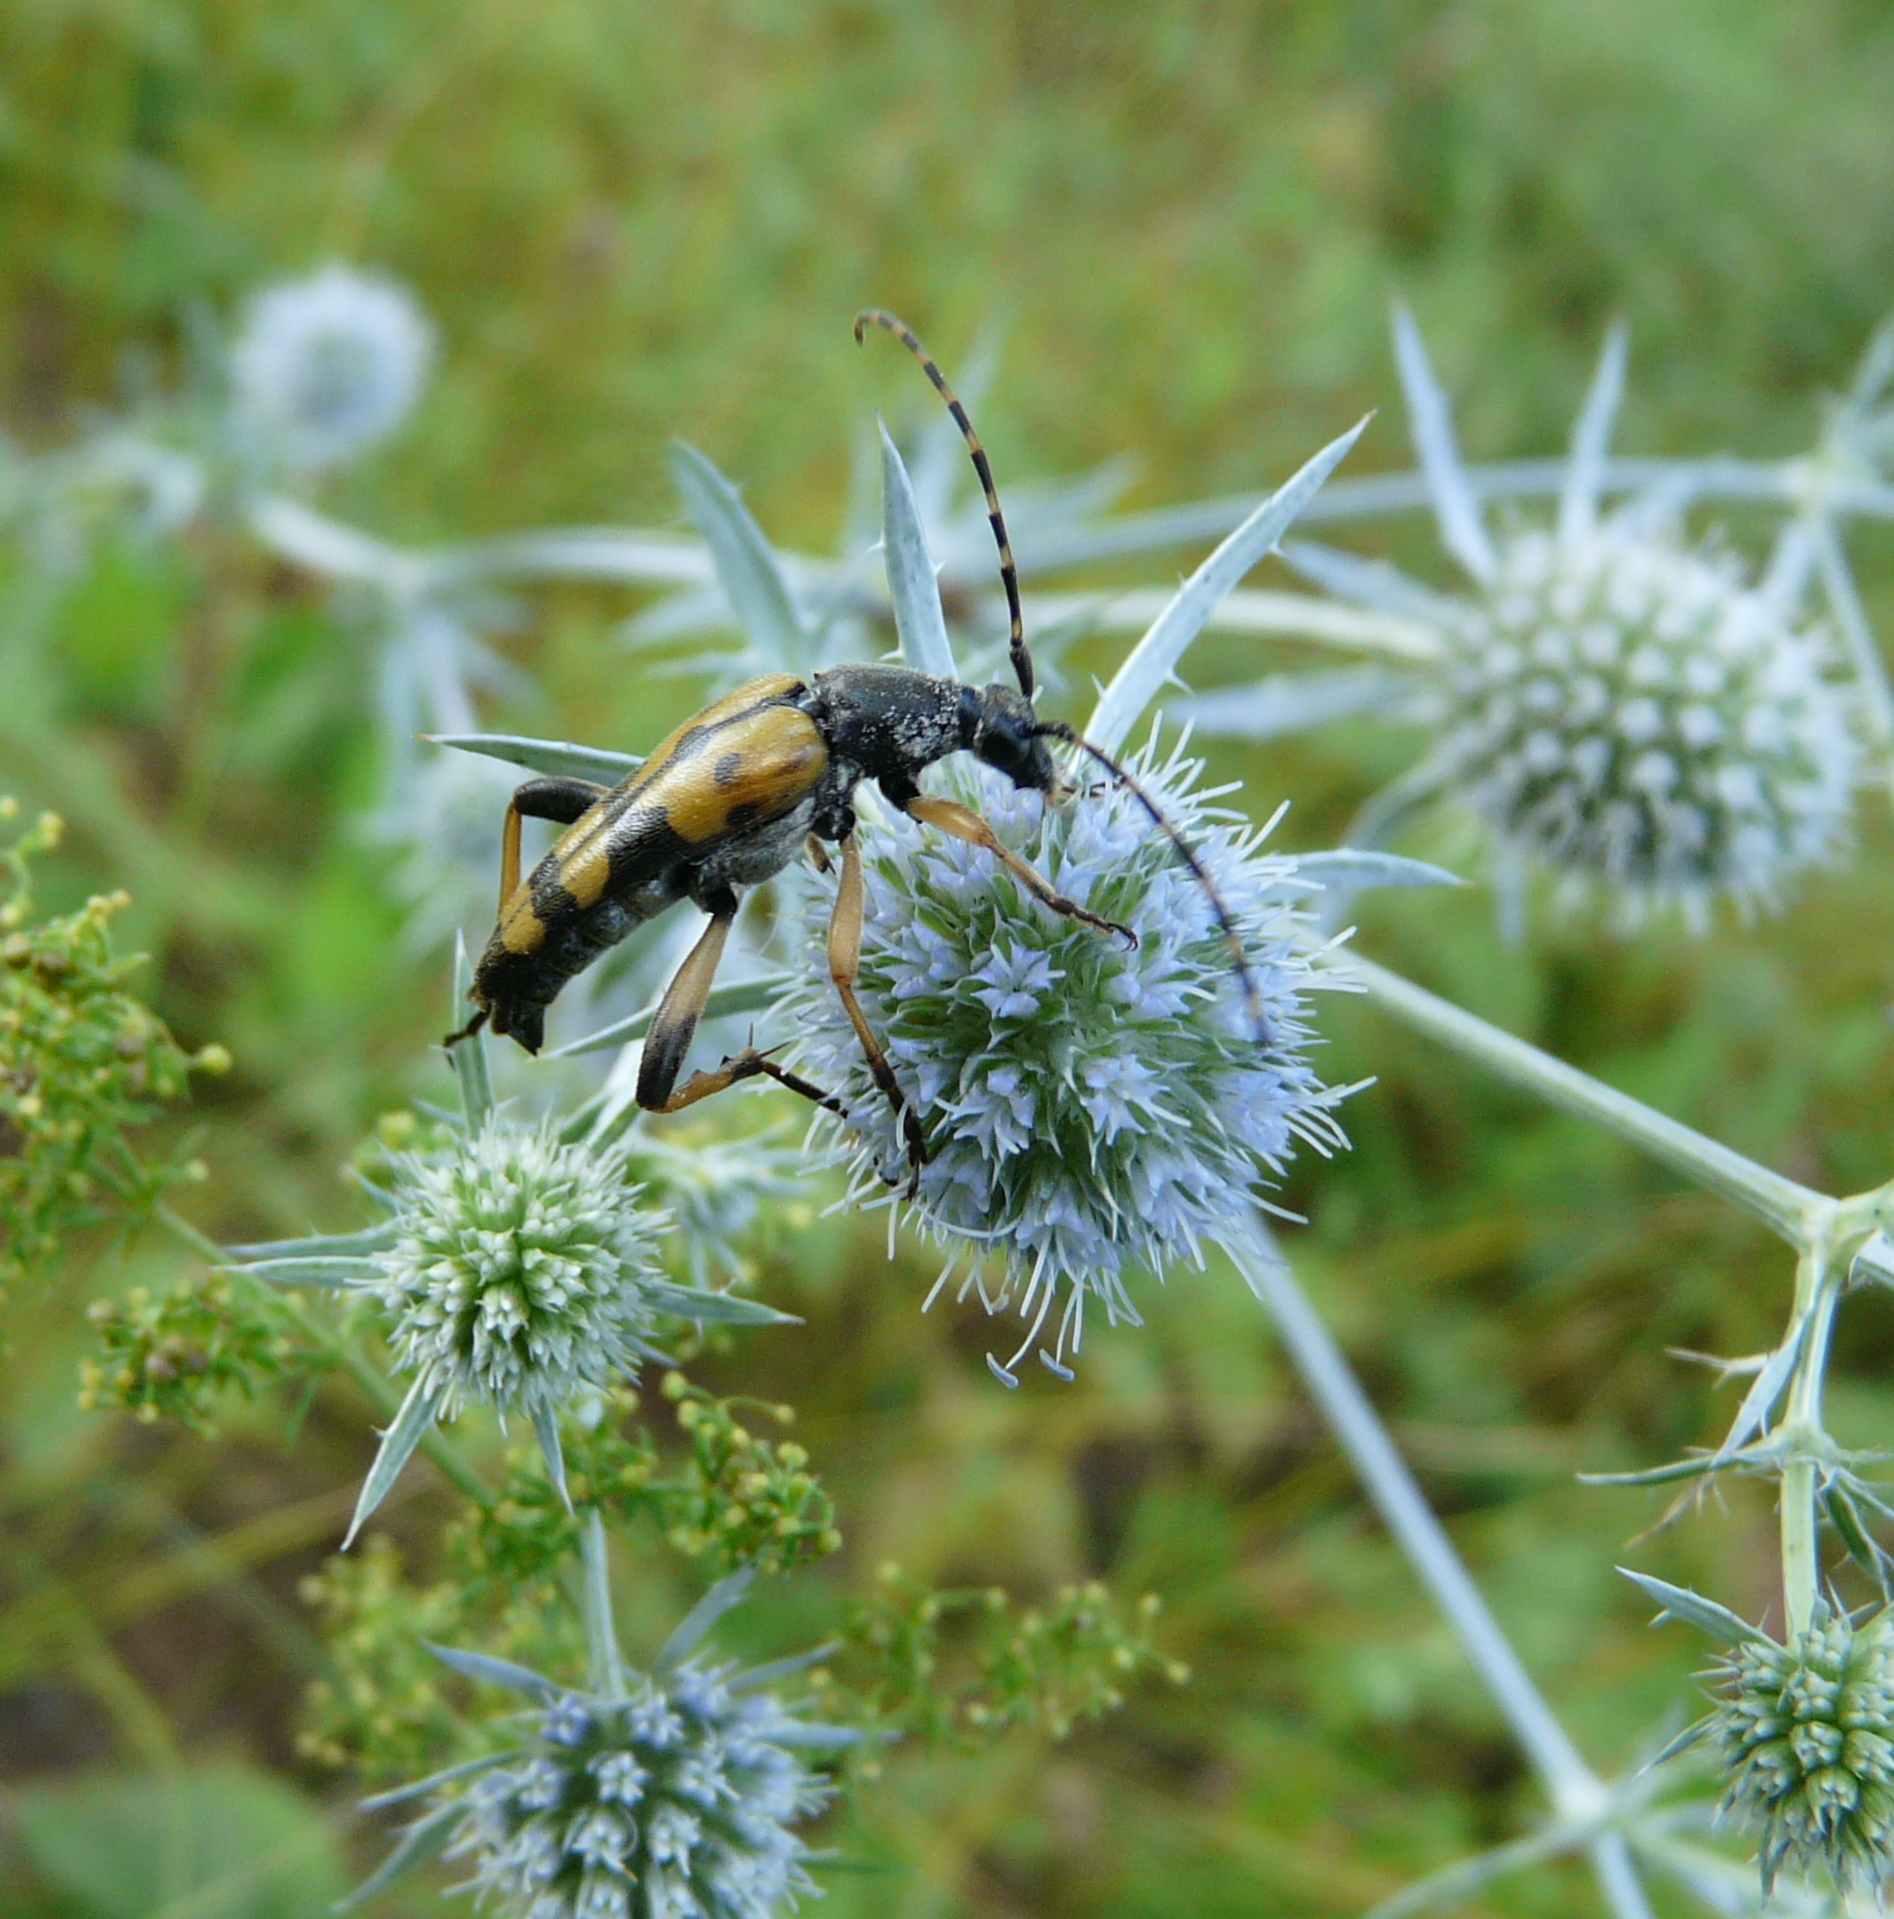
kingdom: Animalia
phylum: Arthropoda
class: Insecta
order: Coleoptera
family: Cerambycidae
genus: Rutpela
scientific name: Rutpela maculata
